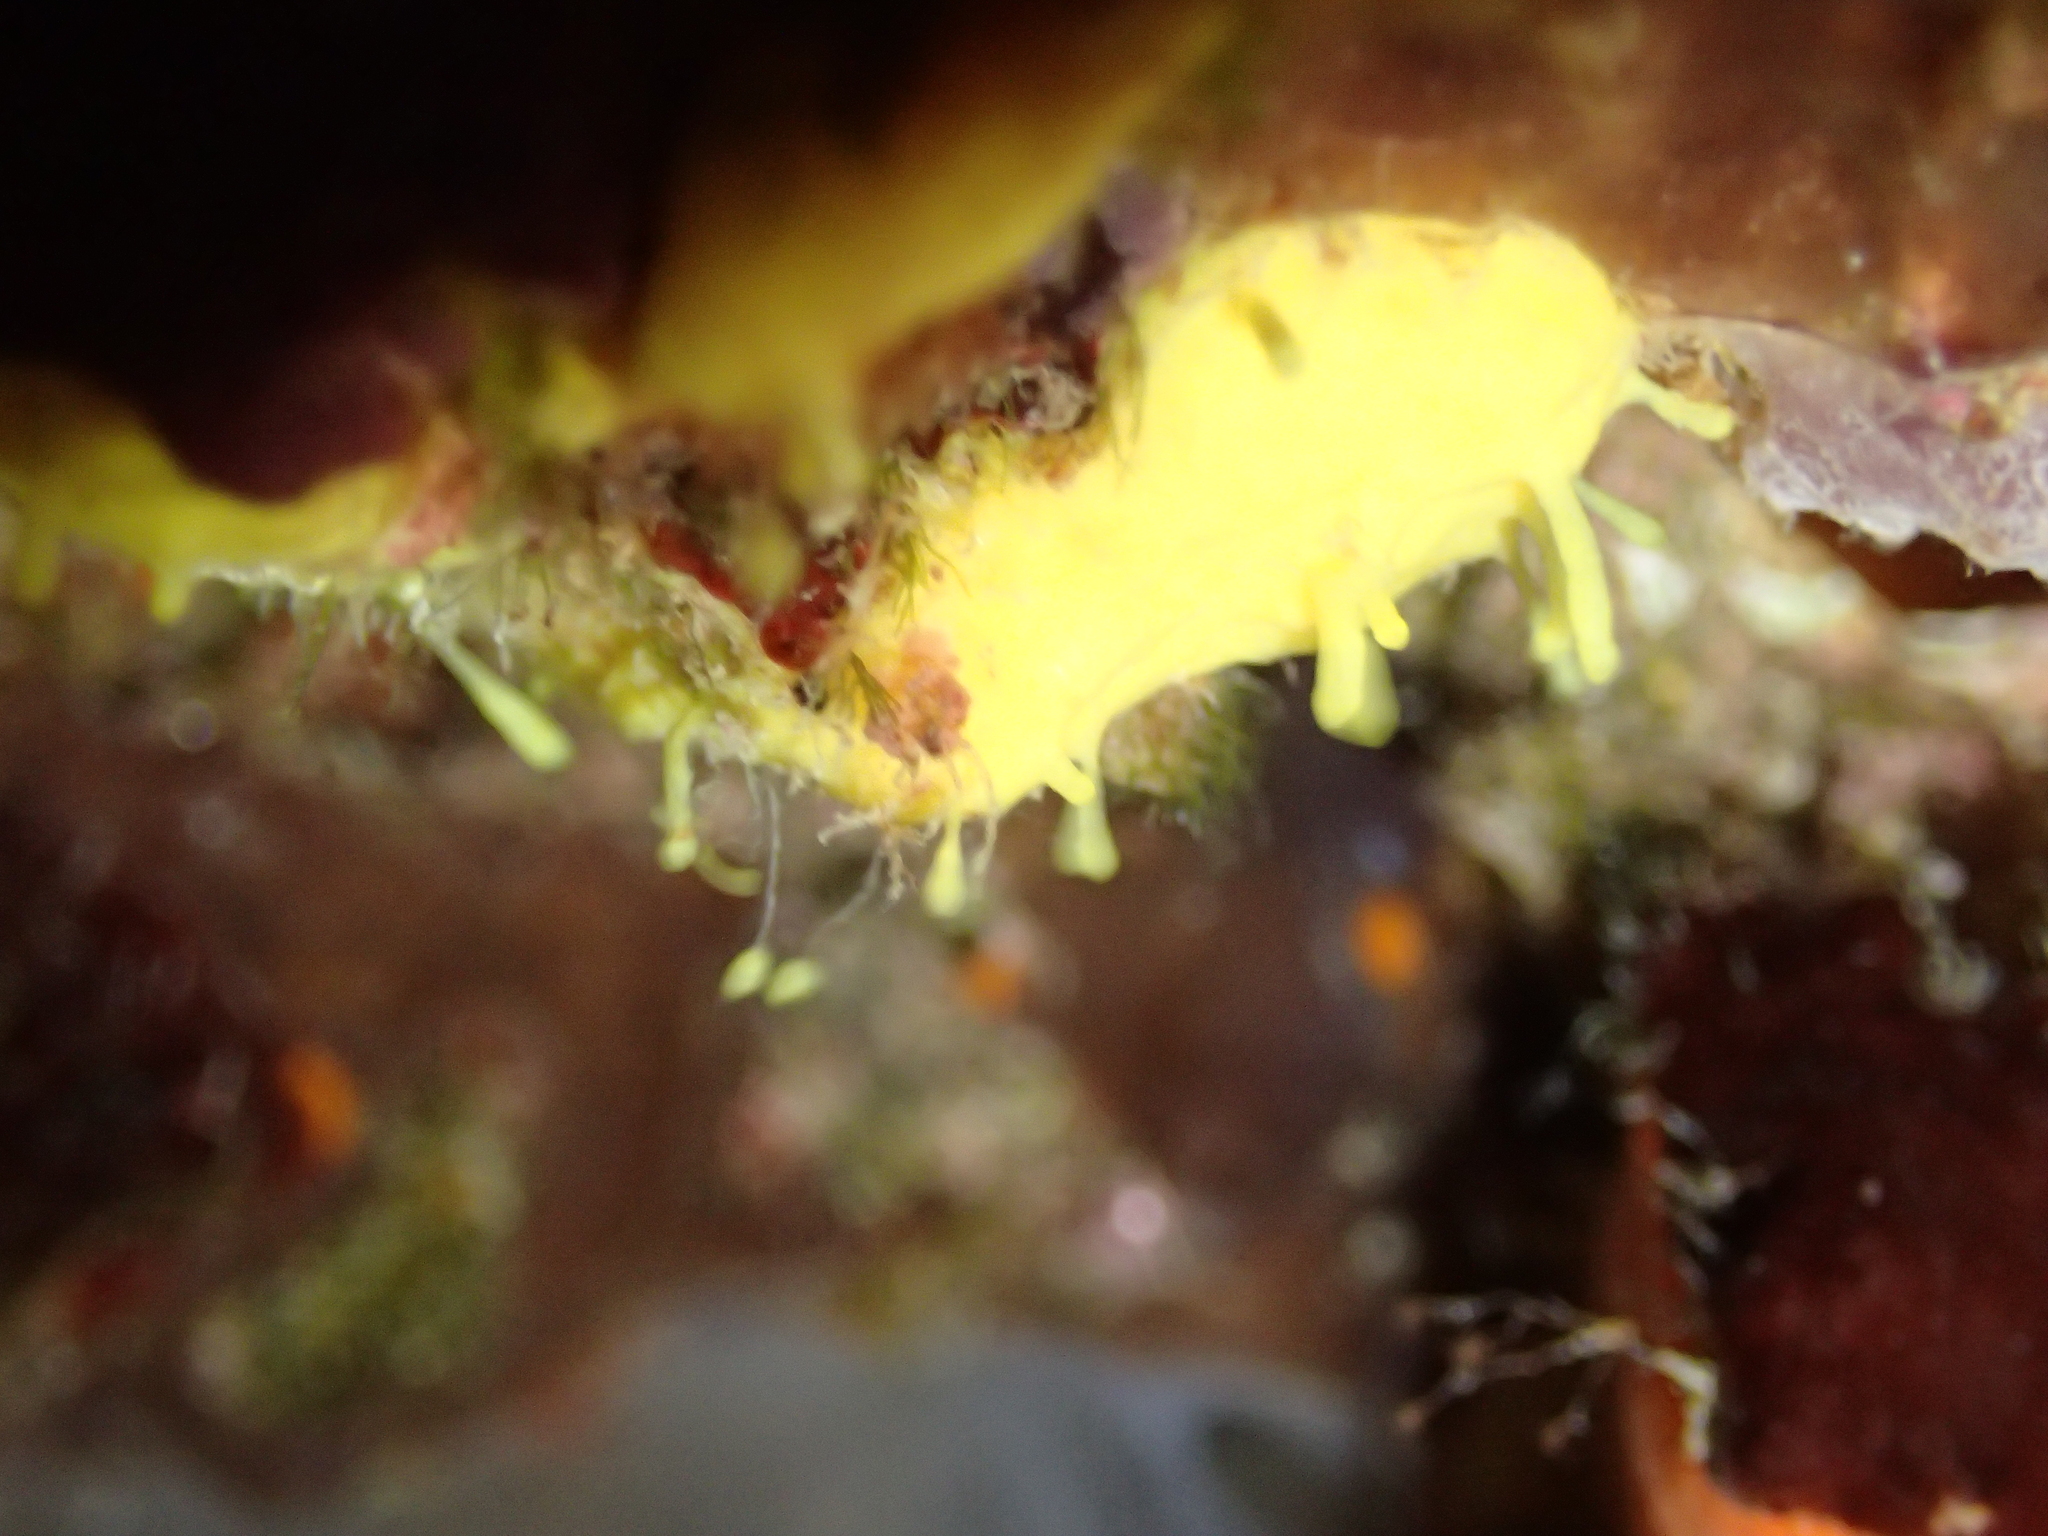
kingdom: Animalia
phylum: Porifera
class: Demospongiae
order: Verongiida
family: Aplysinidae
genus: Aplysina
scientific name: Aplysina aerophoba
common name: Aureate sponge
